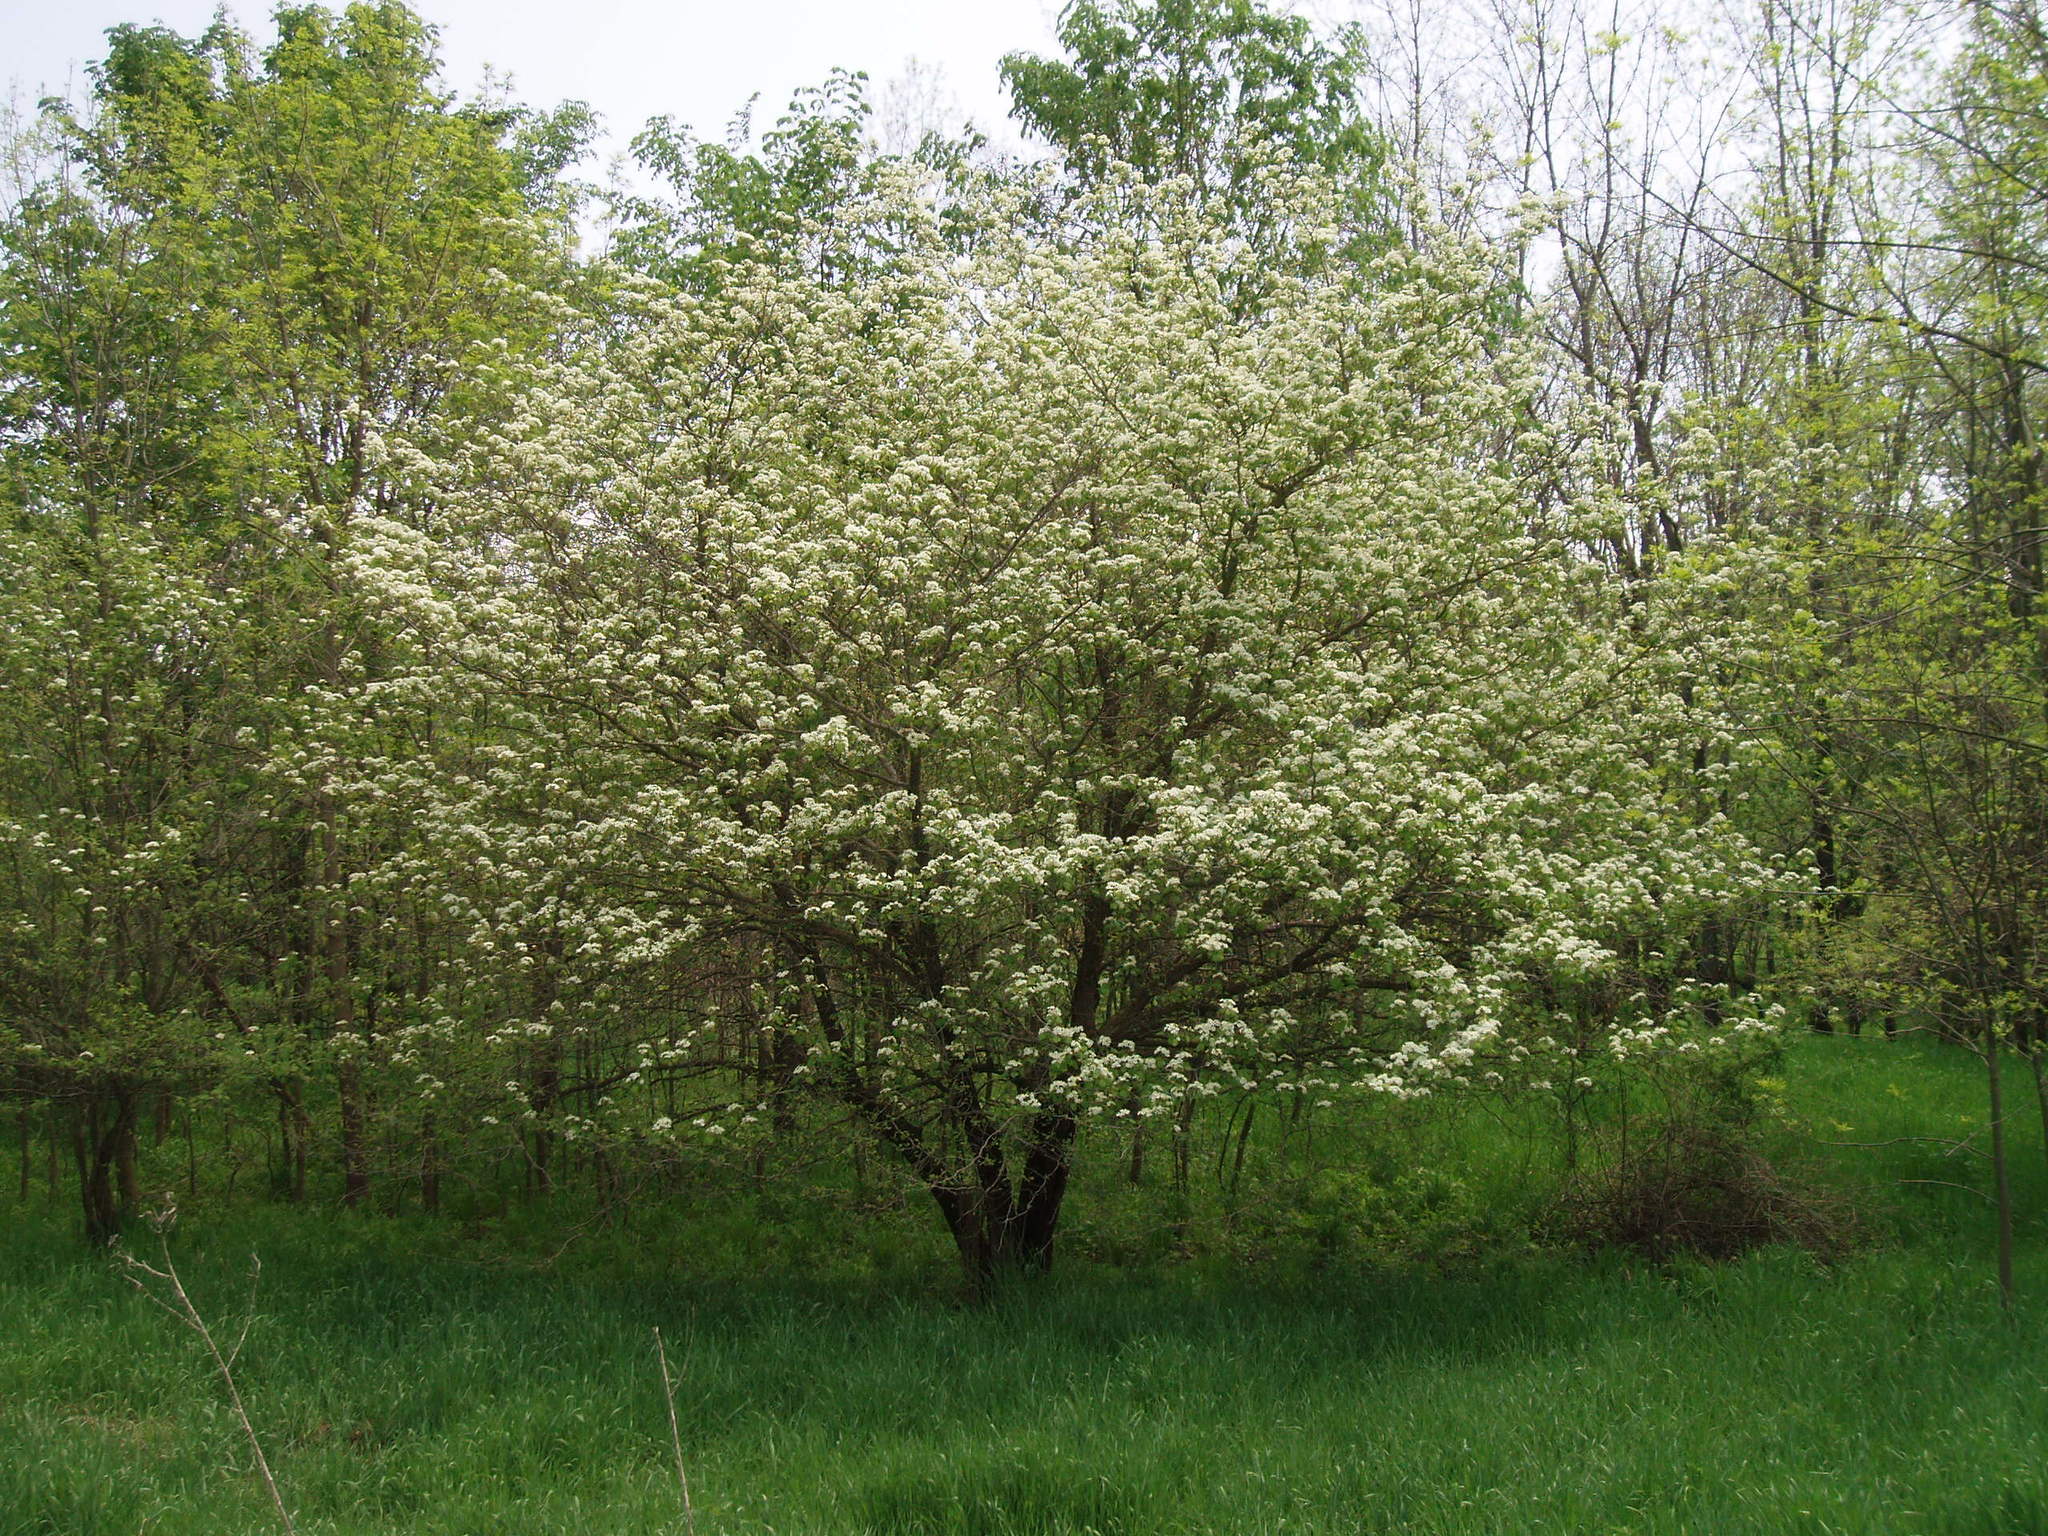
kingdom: Plantae
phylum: Tracheophyta
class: Magnoliopsida
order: Rosales
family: Rosaceae
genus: Crataegus
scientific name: Crataegus mollis
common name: Downy hawthorn
